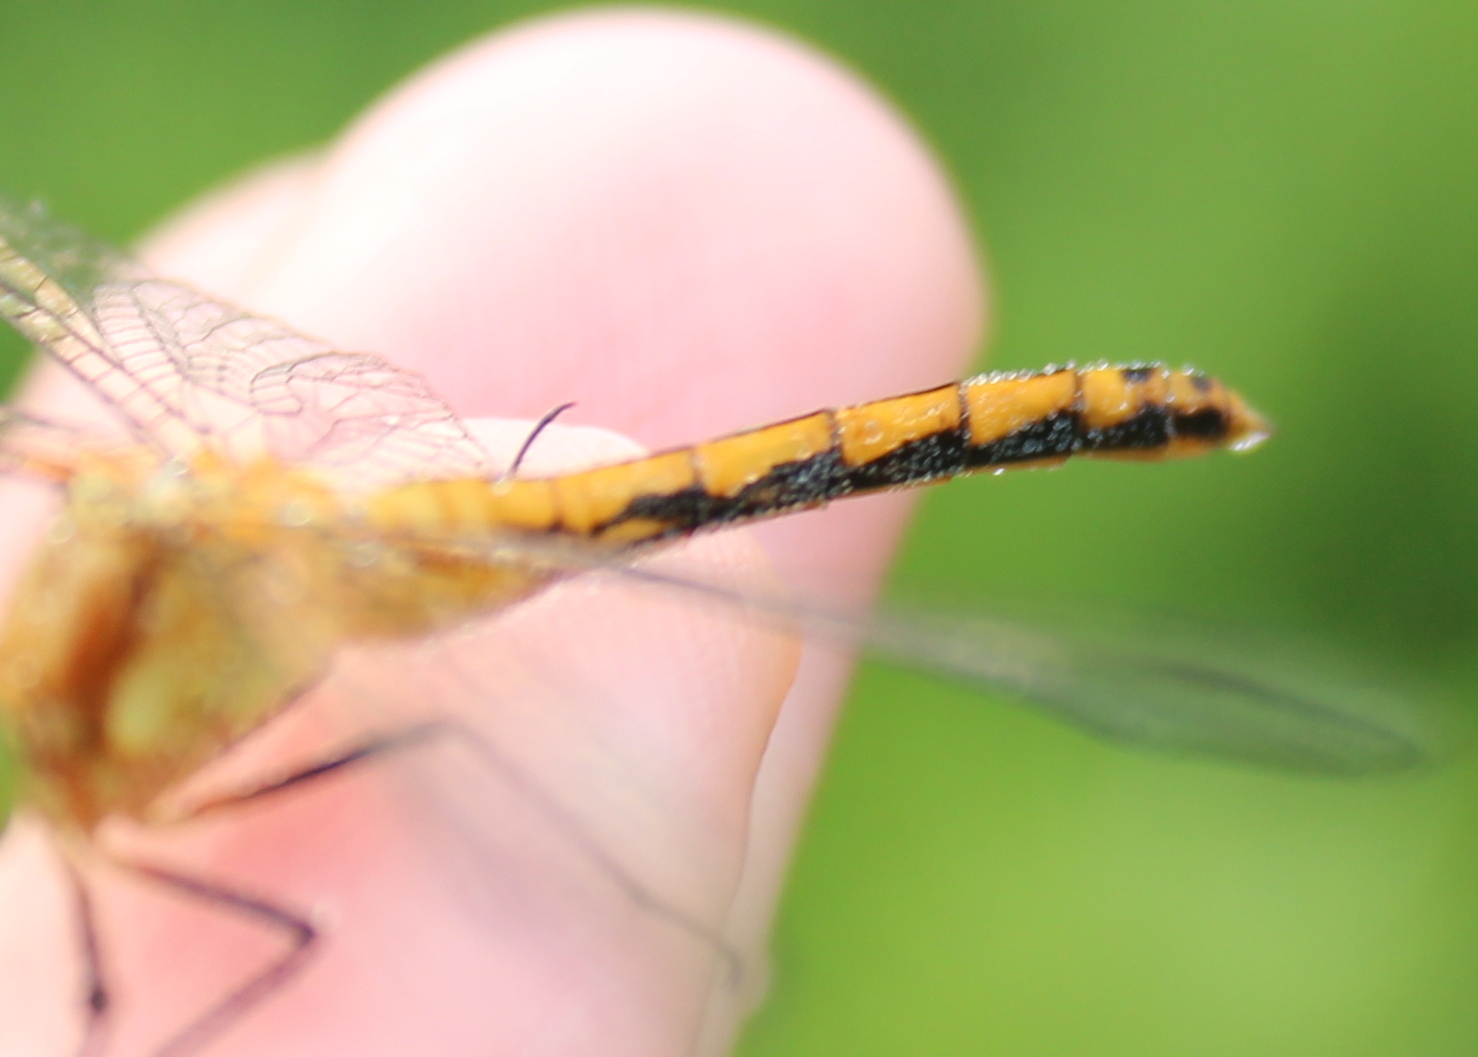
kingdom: Animalia
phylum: Arthropoda
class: Insecta
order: Odonata
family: Libellulidae
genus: Sympetrum
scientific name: Sympetrum
